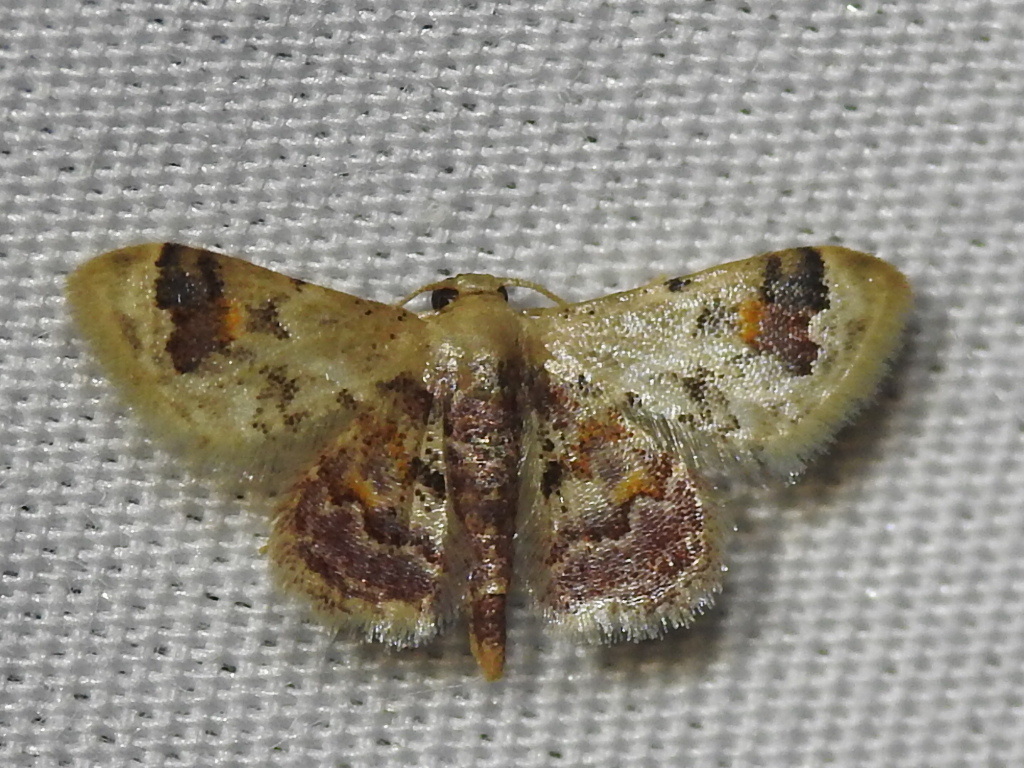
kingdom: Animalia
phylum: Arthropoda
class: Insecta
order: Lepidoptera
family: Geometridae
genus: Idaea
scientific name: Idaea asceta
